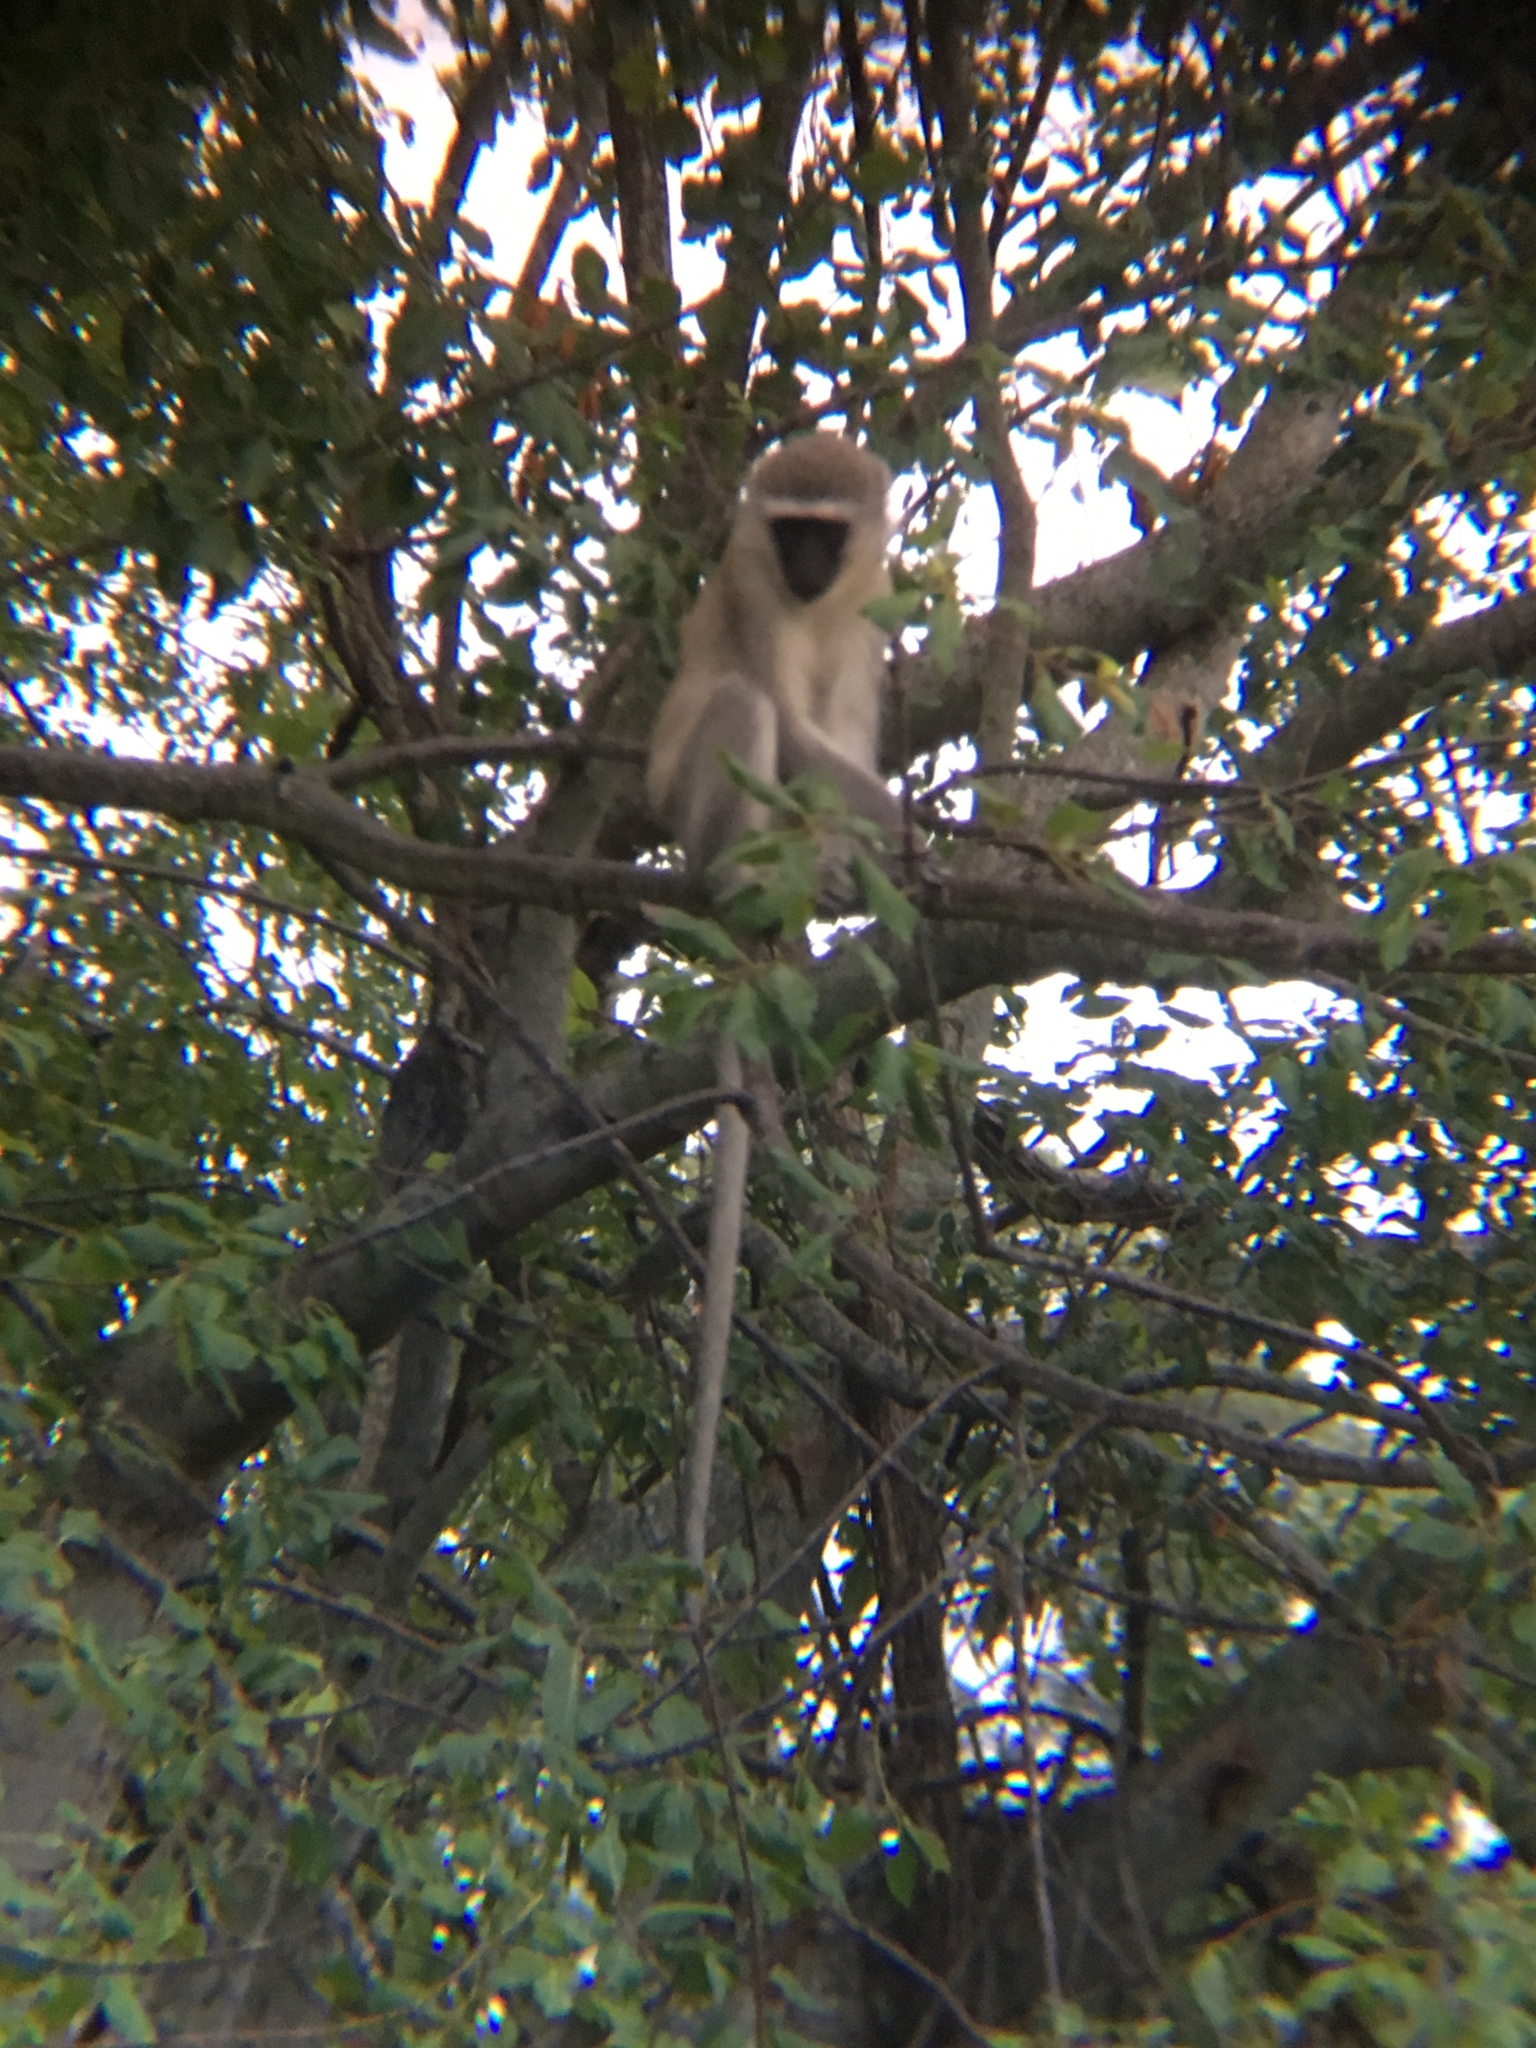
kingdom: Animalia
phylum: Chordata
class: Mammalia
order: Primates
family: Cercopithecidae
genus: Chlorocebus
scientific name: Chlorocebus pygerythrus
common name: Vervet monkey
